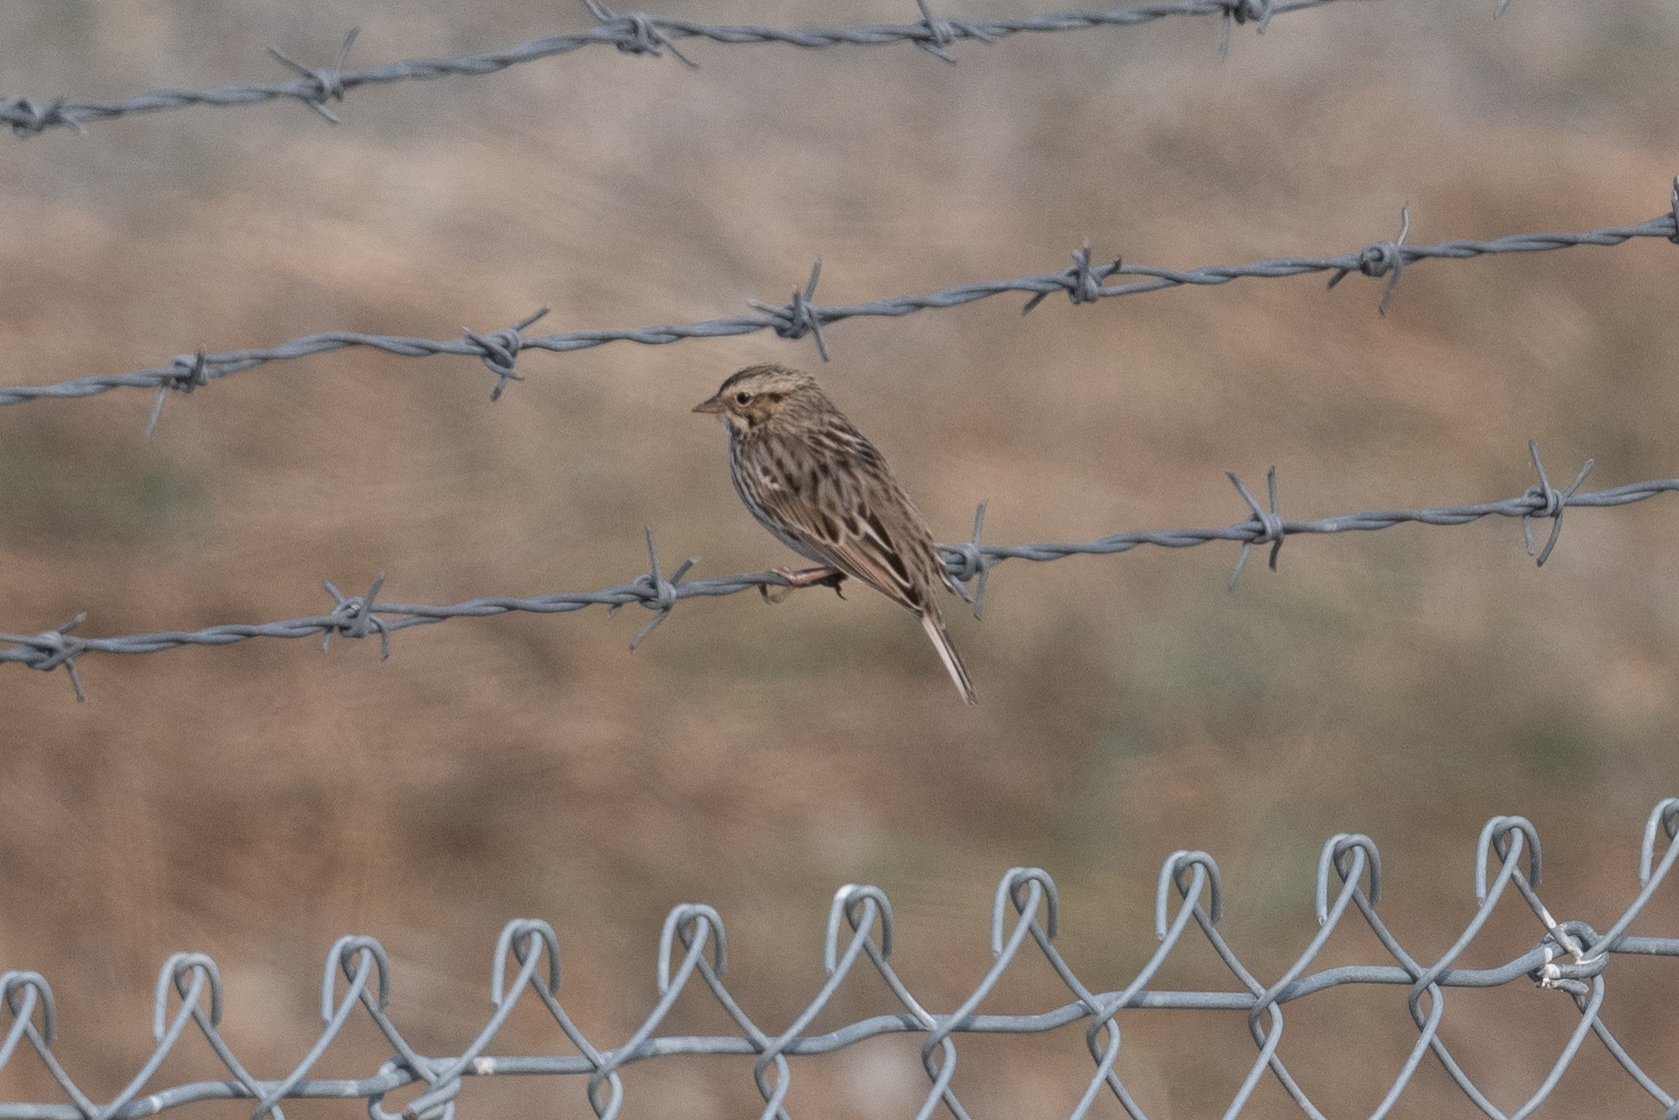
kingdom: Animalia
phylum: Chordata
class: Aves
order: Passeriformes
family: Passerellidae
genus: Passerculus
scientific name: Passerculus sandwichensis
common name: Savannah sparrow
